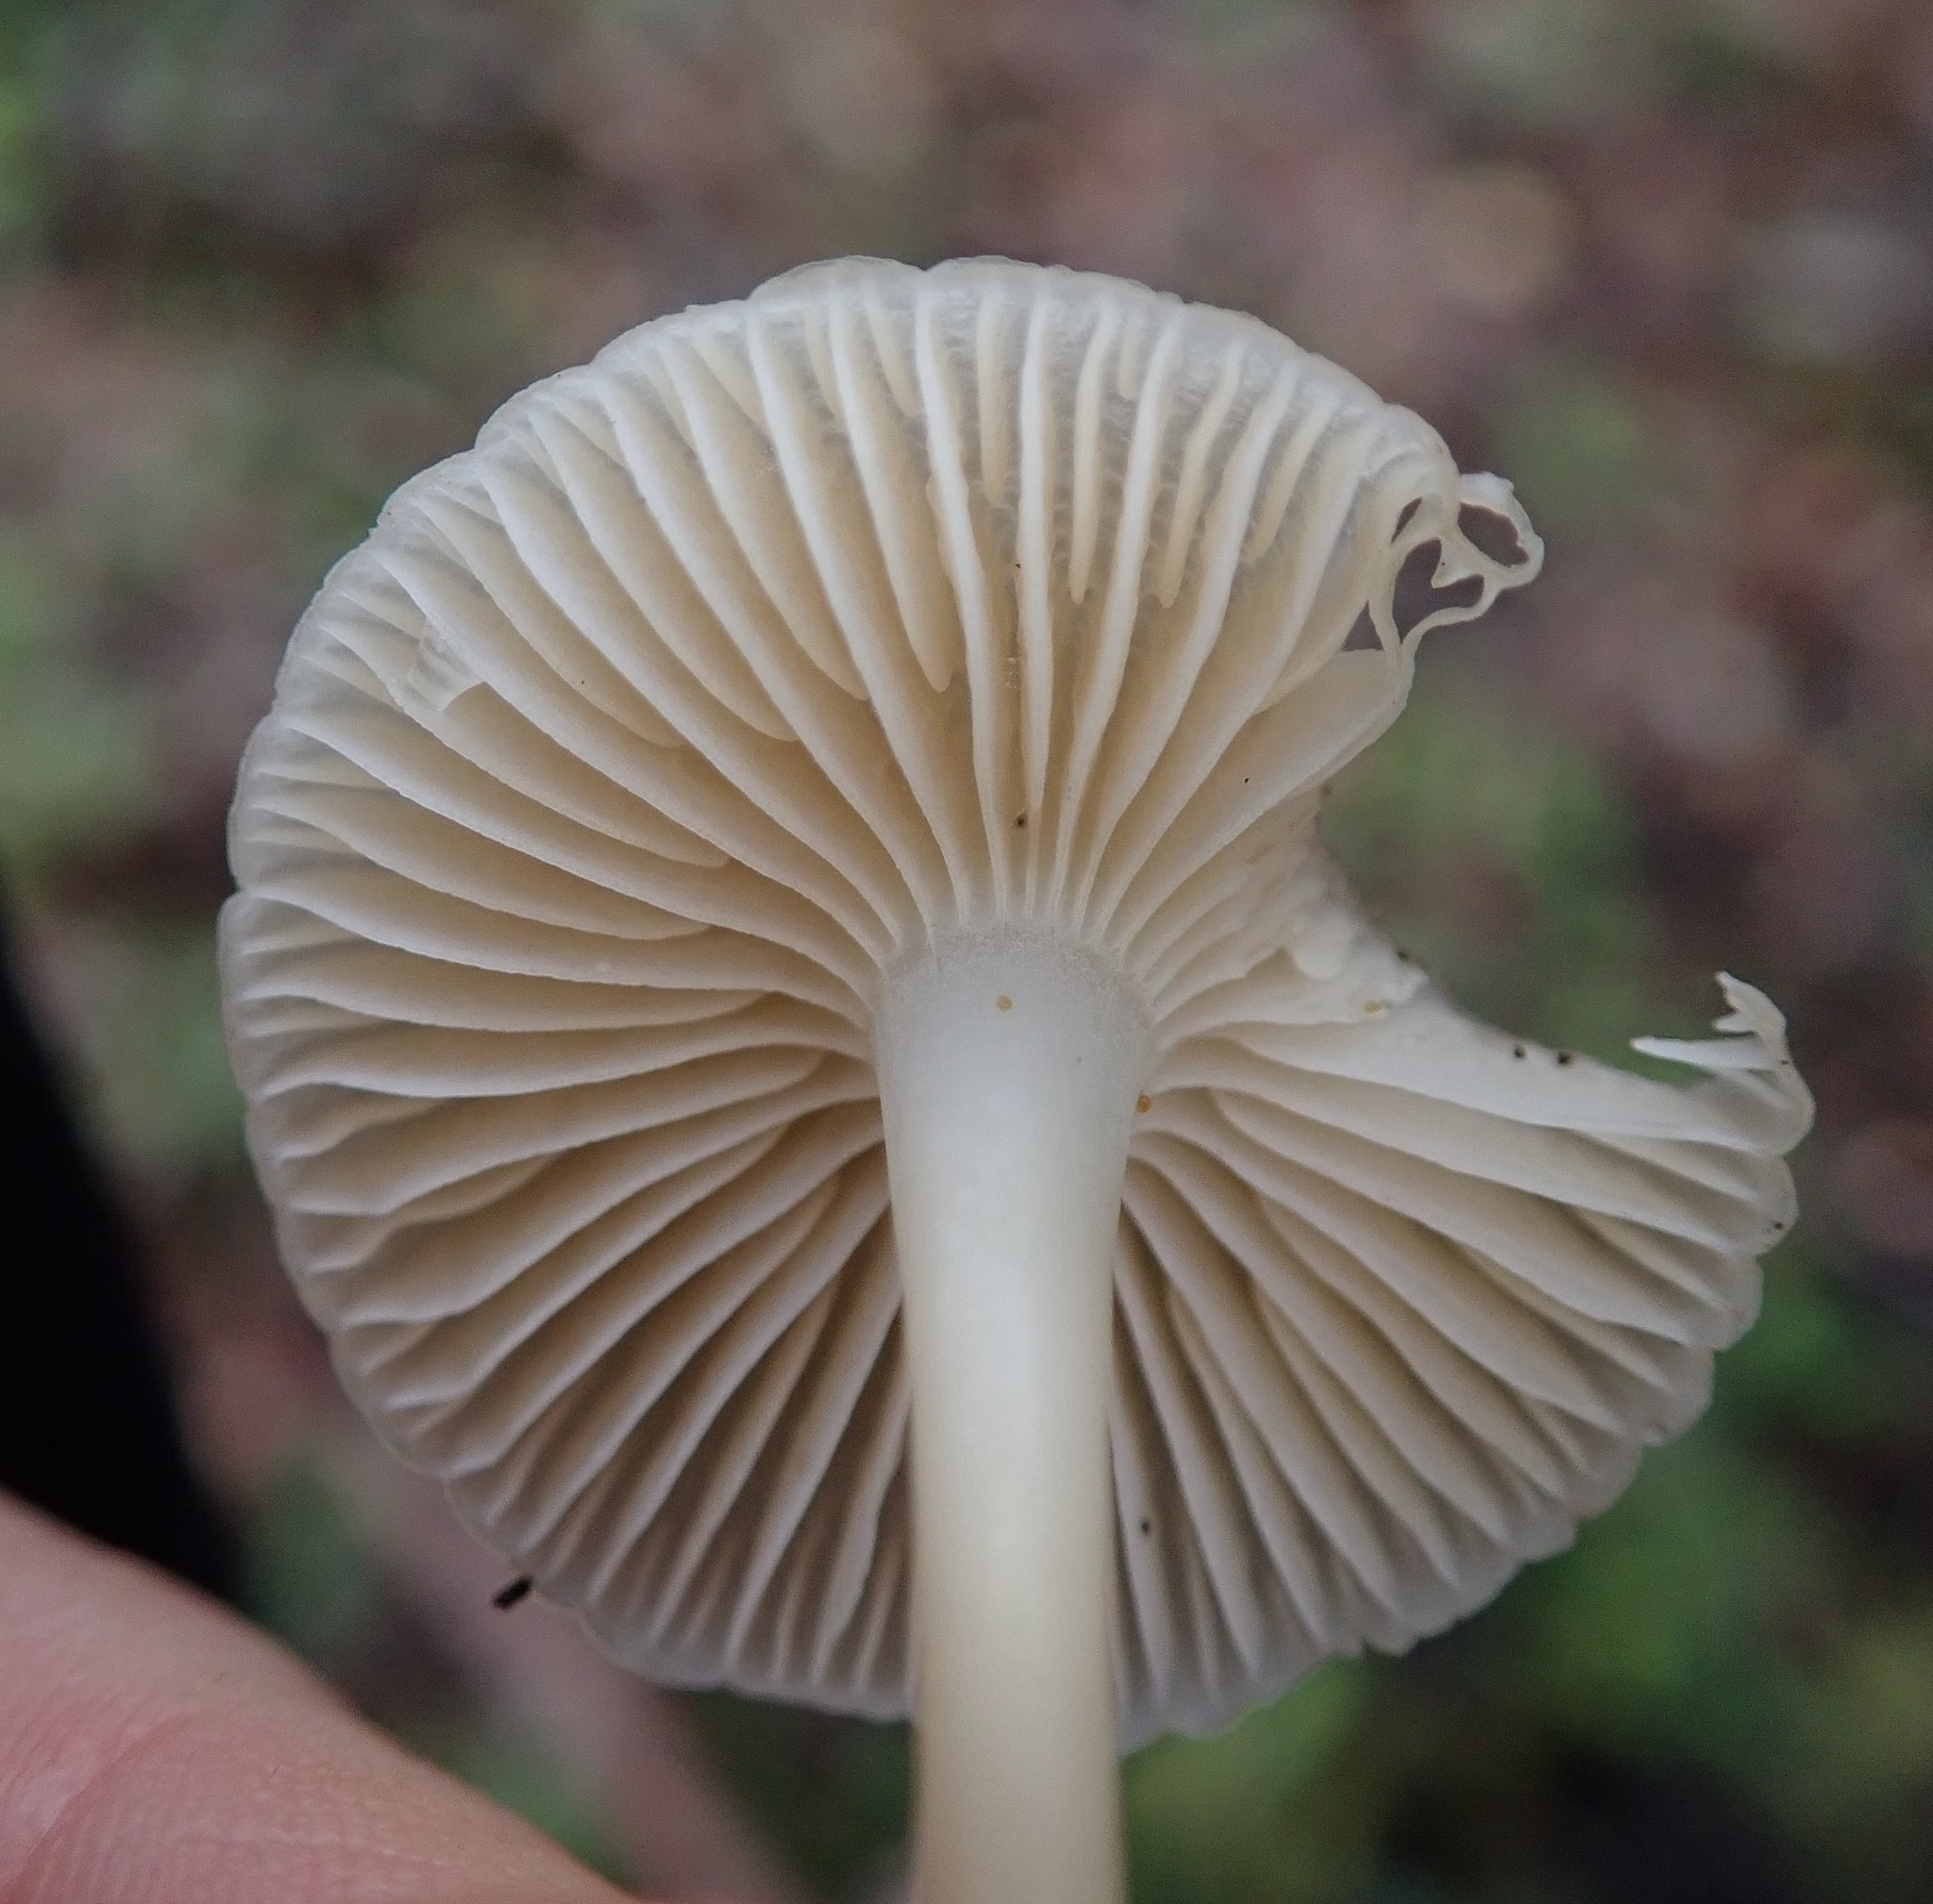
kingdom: Fungi
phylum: Basidiomycota
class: Agaricomycetes
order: Agaricales
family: Mycenaceae
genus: Mycena
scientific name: Mycena galericulata
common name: Bonnet mycena
